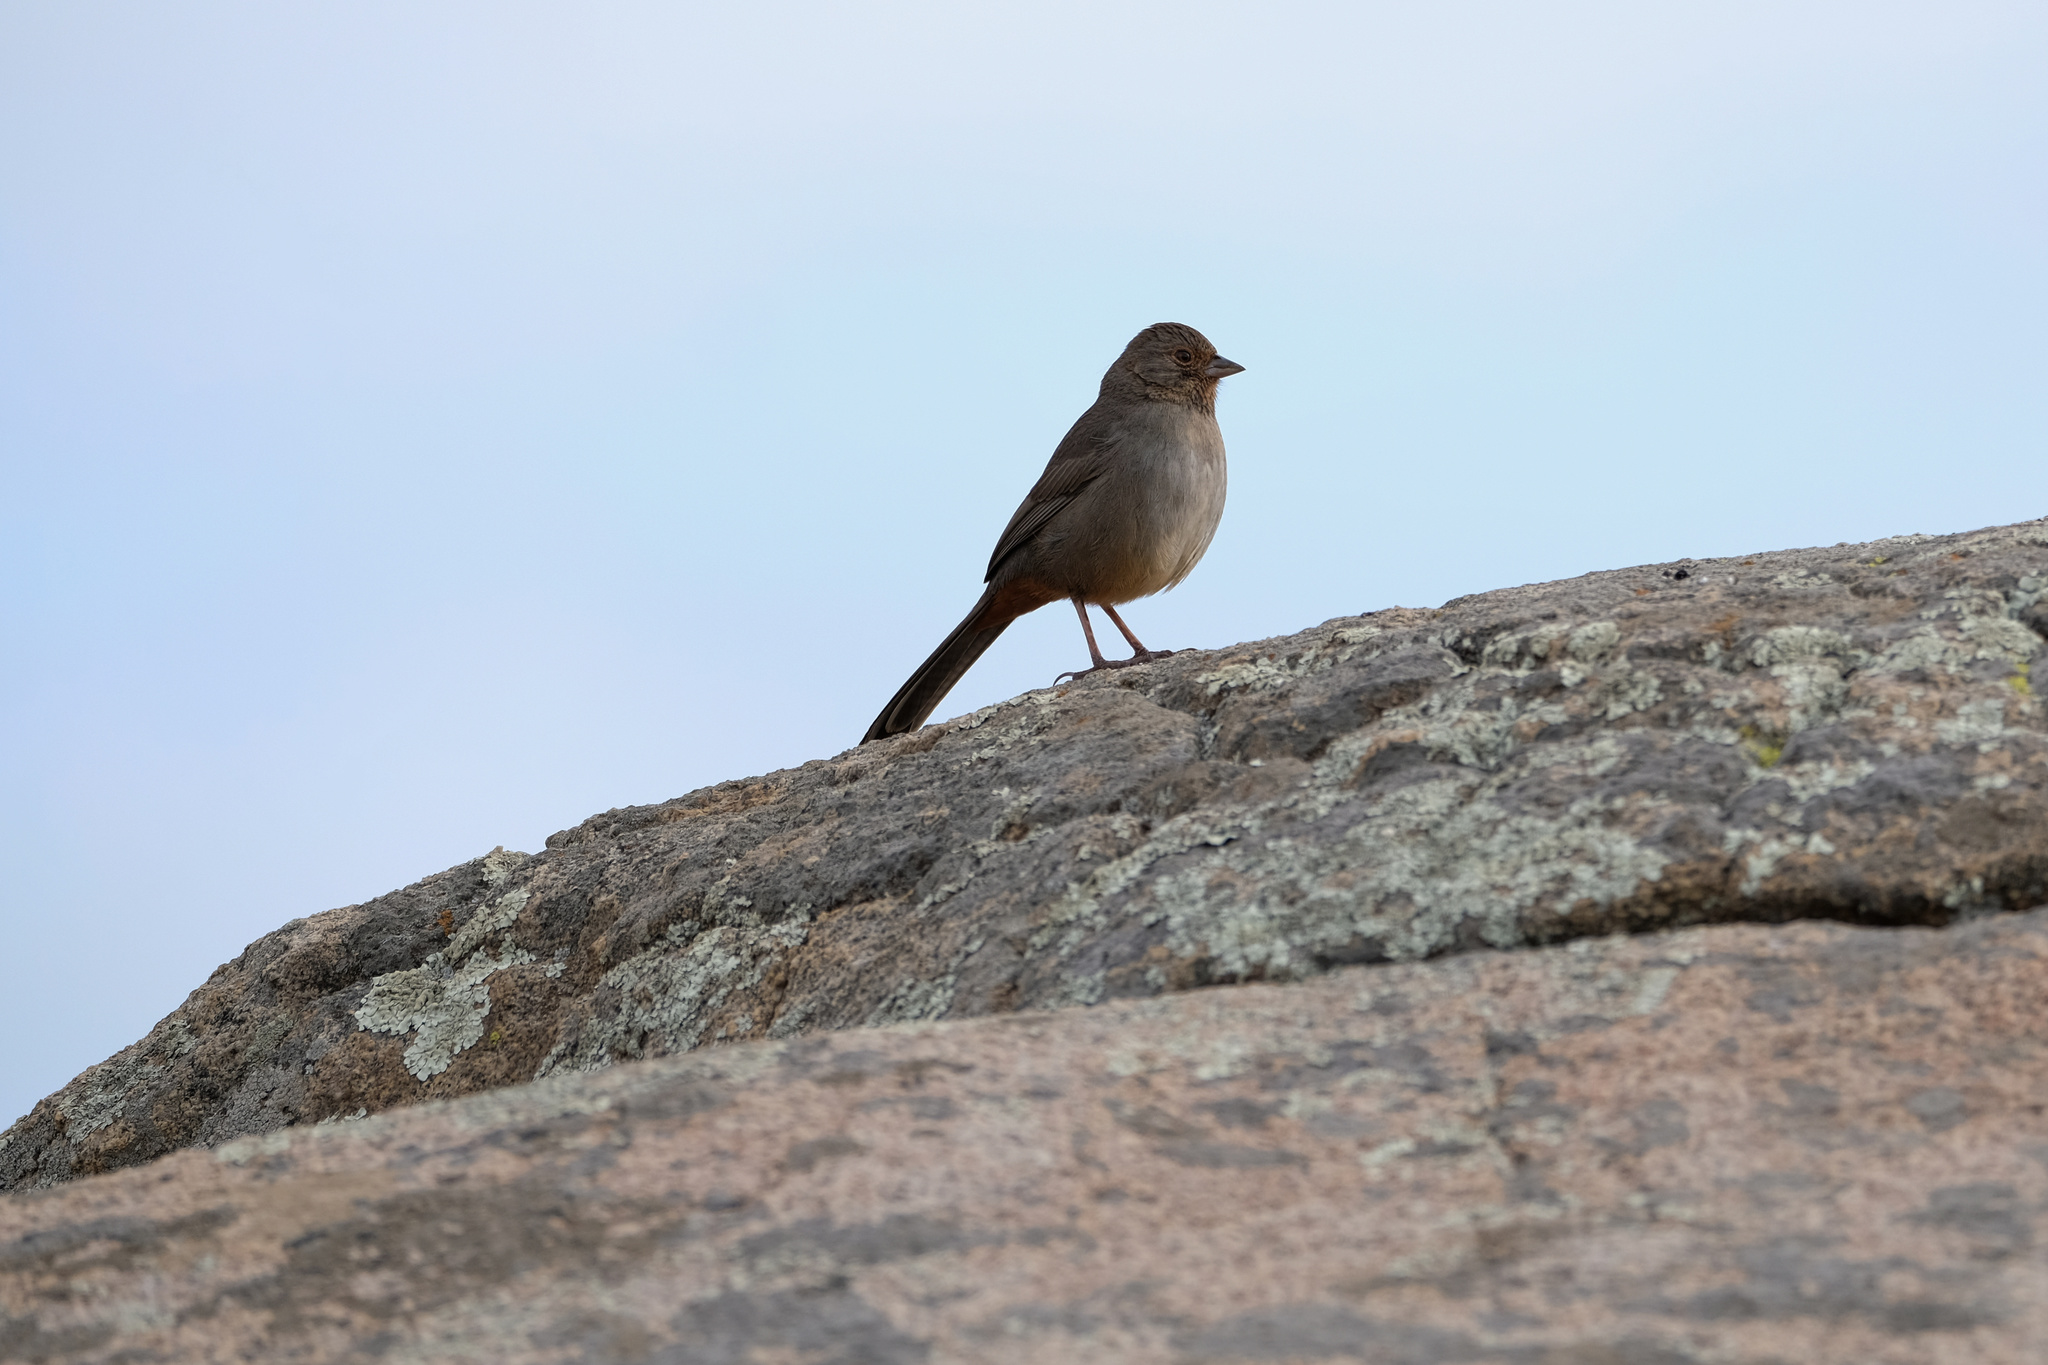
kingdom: Animalia
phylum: Chordata
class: Aves
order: Passeriformes
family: Passerellidae
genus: Melozone
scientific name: Melozone crissalis
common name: California towhee
